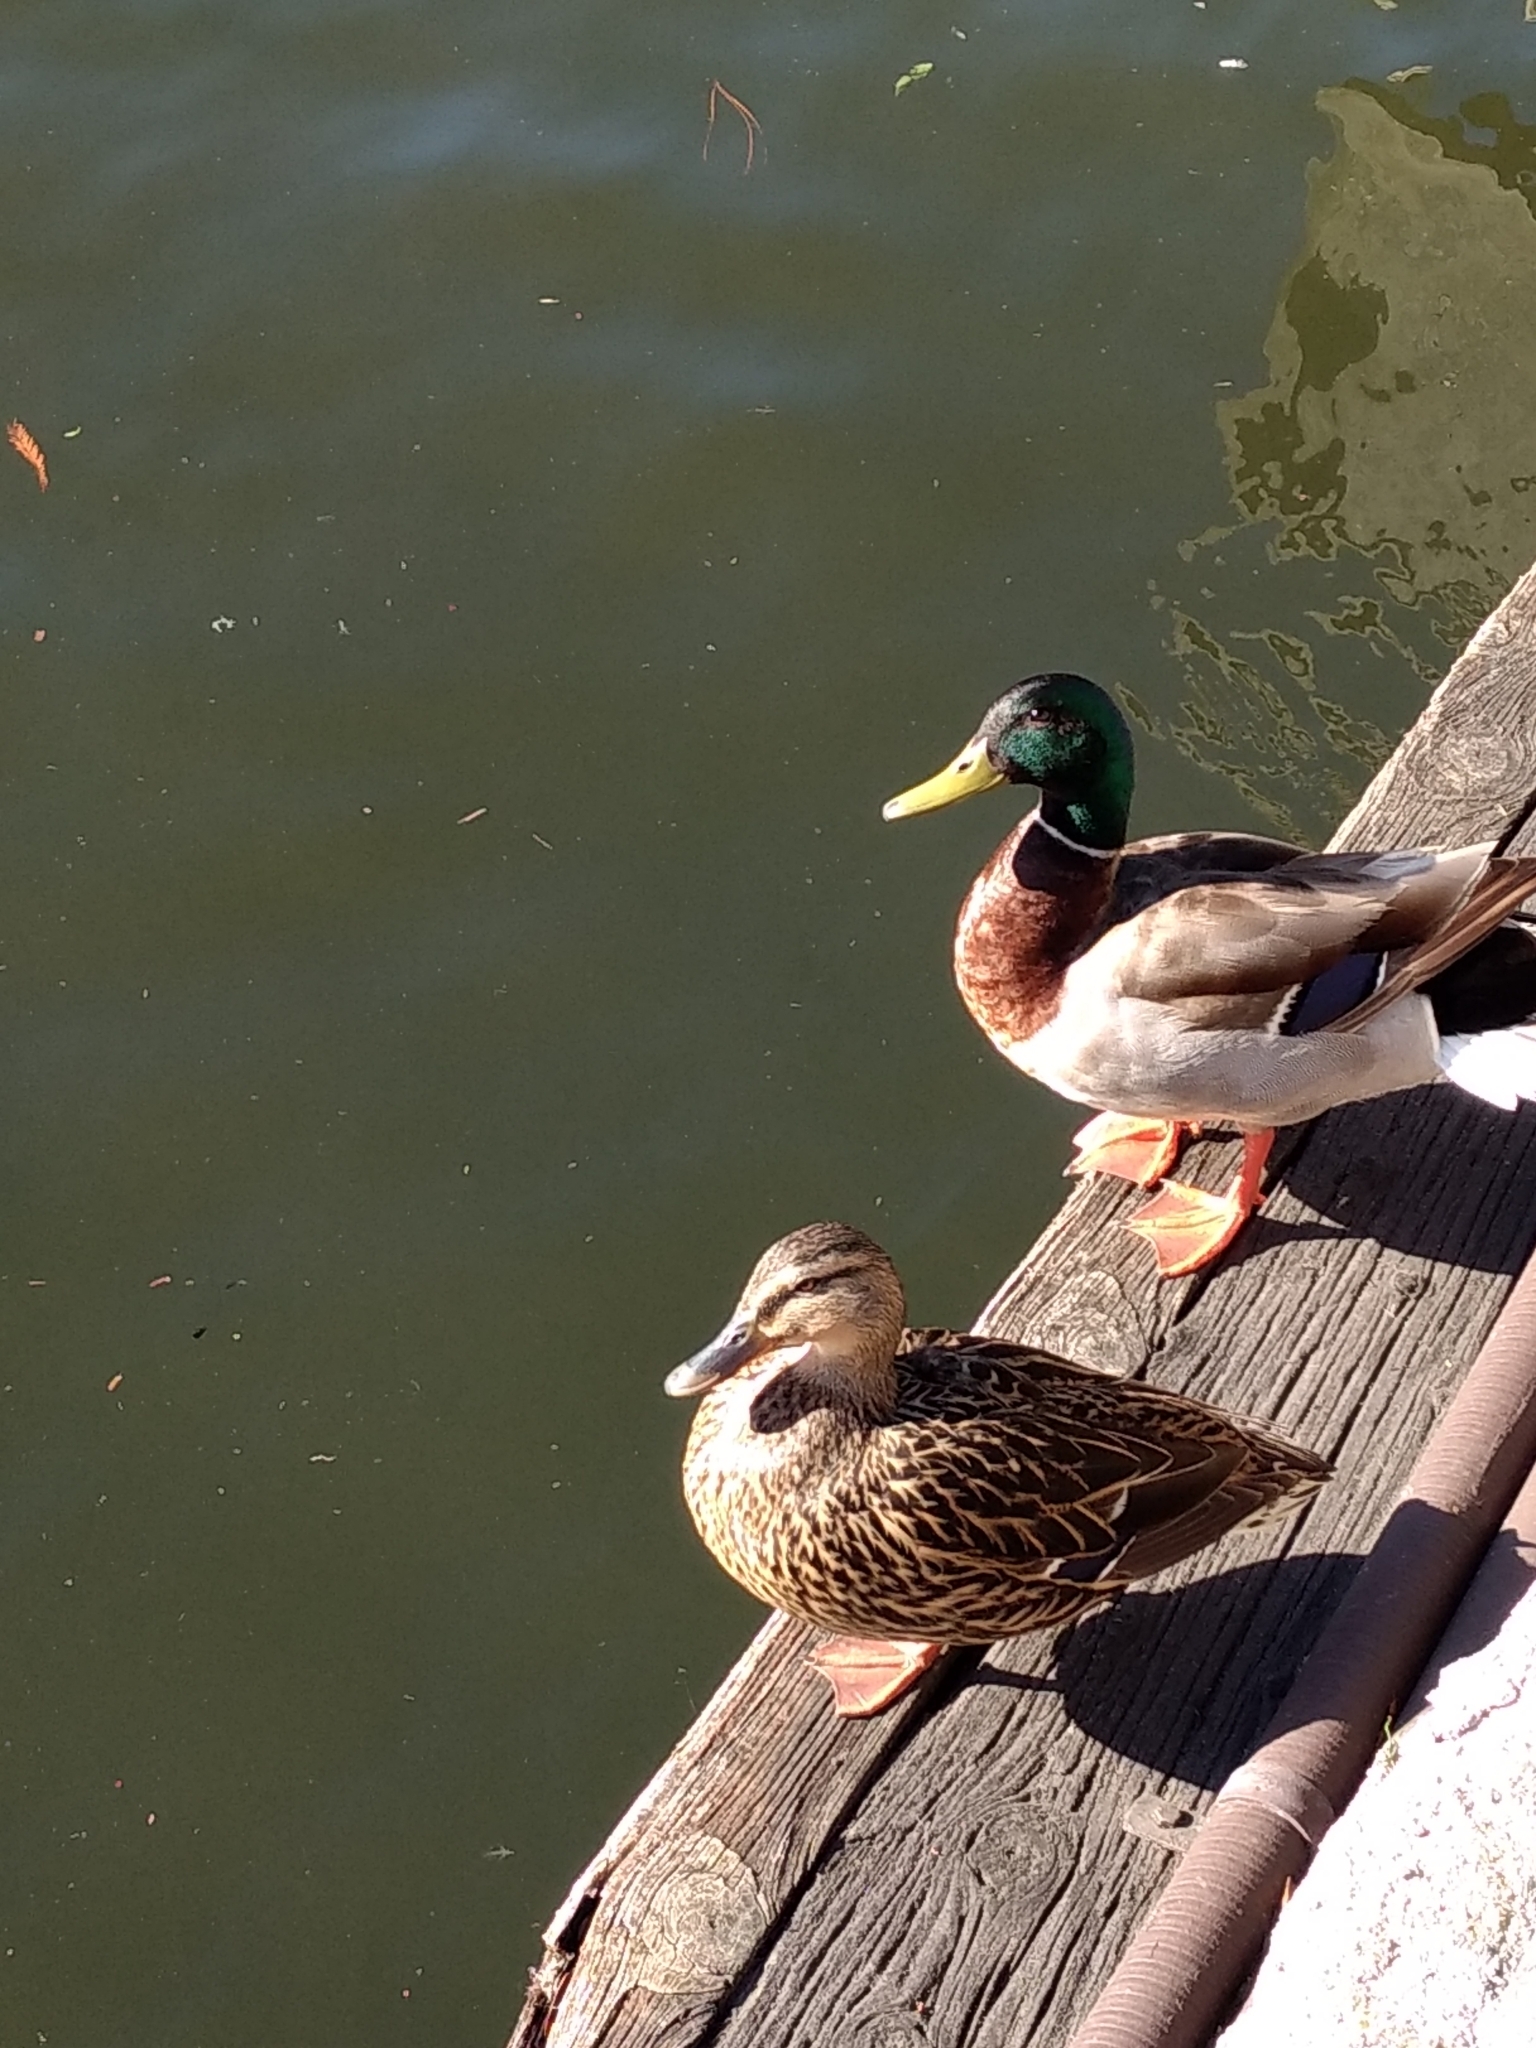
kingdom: Animalia
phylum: Chordata
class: Aves
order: Anseriformes
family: Anatidae
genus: Anas
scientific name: Anas platyrhynchos
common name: Mallard
